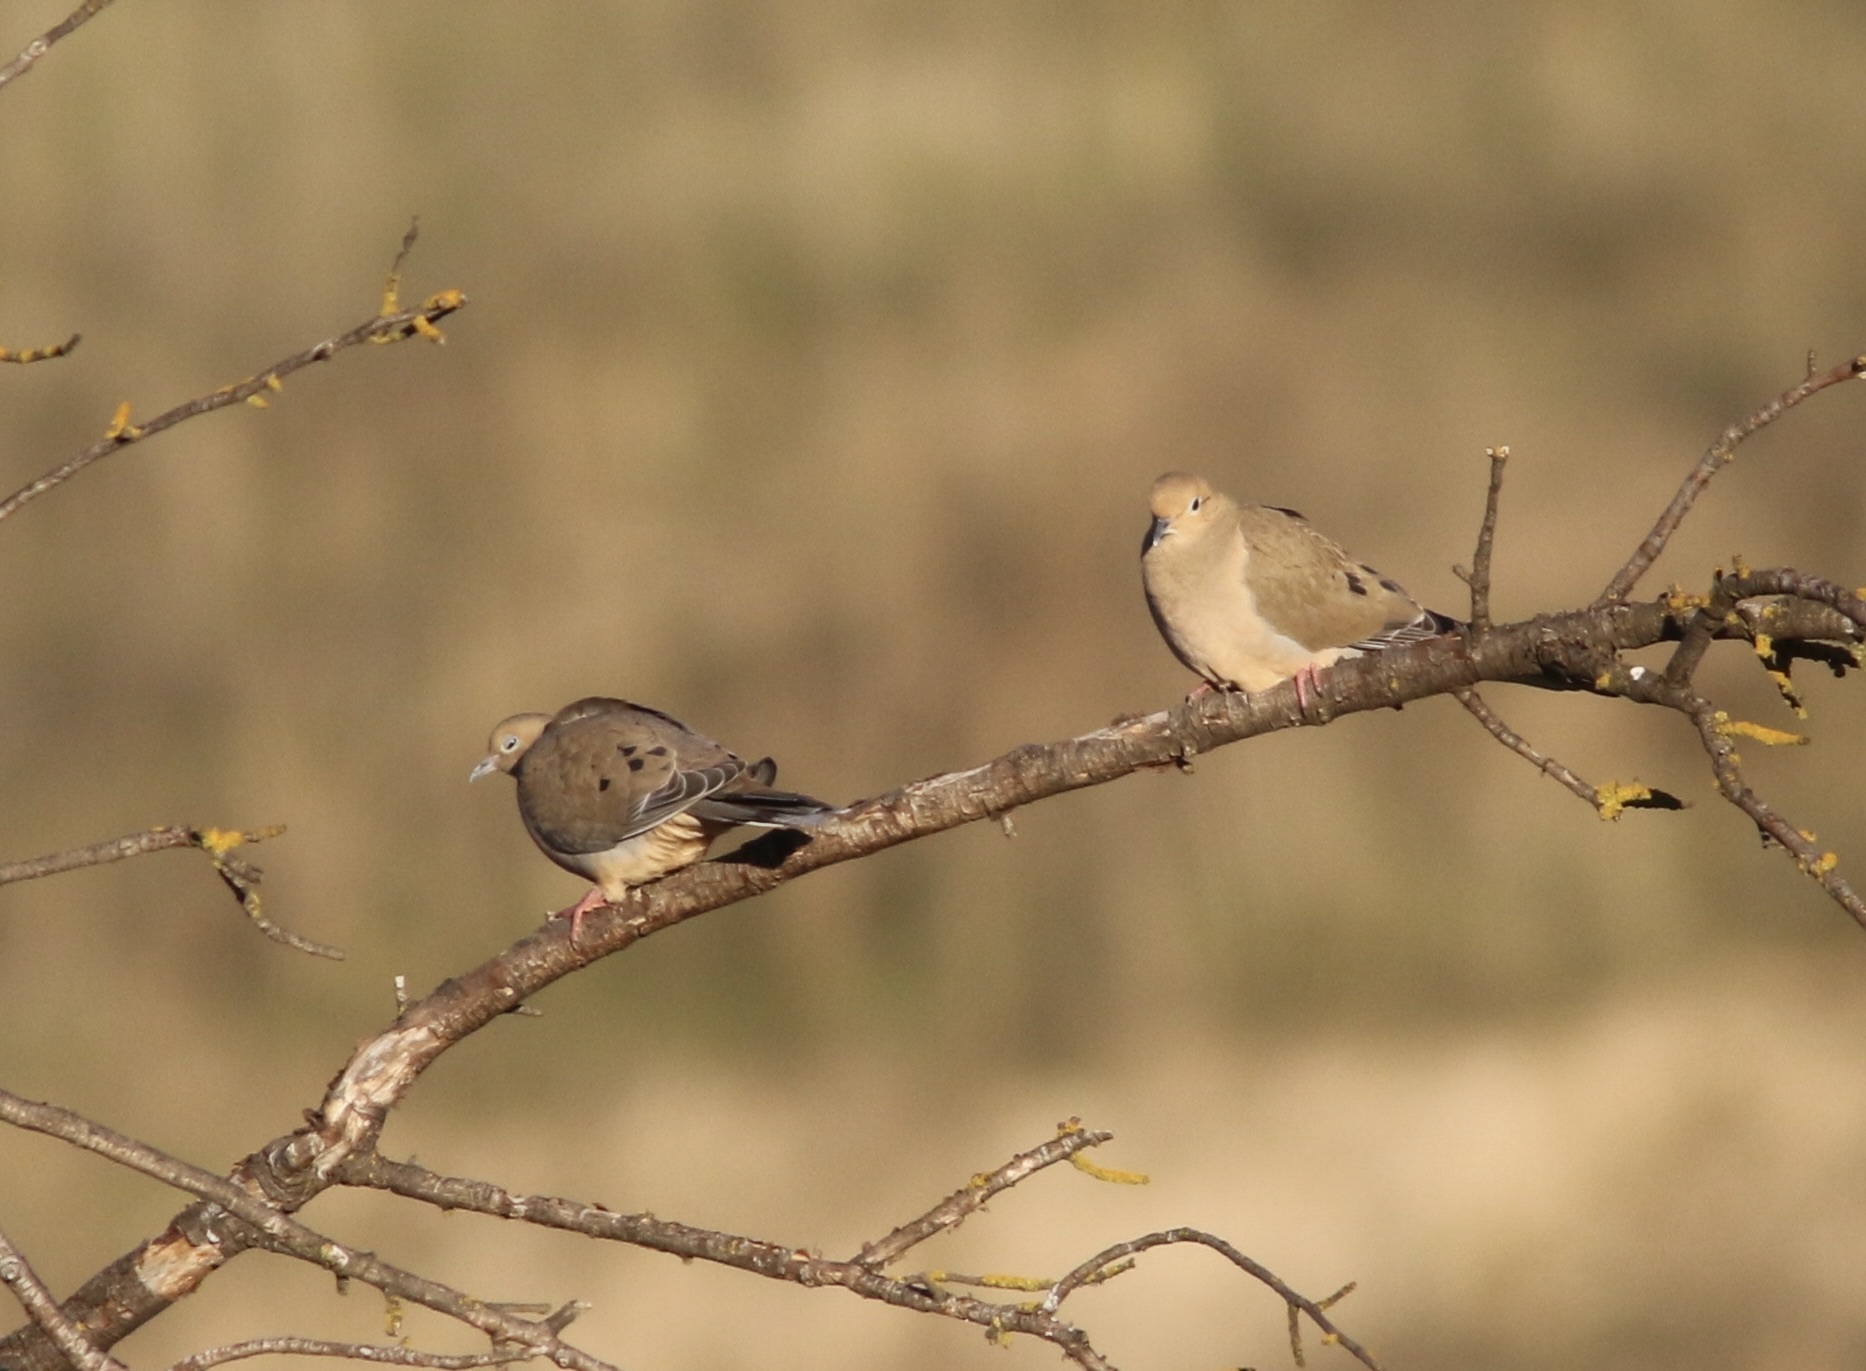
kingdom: Animalia
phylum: Chordata
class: Aves
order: Columbiformes
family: Columbidae
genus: Zenaida
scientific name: Zenaida macroura
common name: Mourning dove
